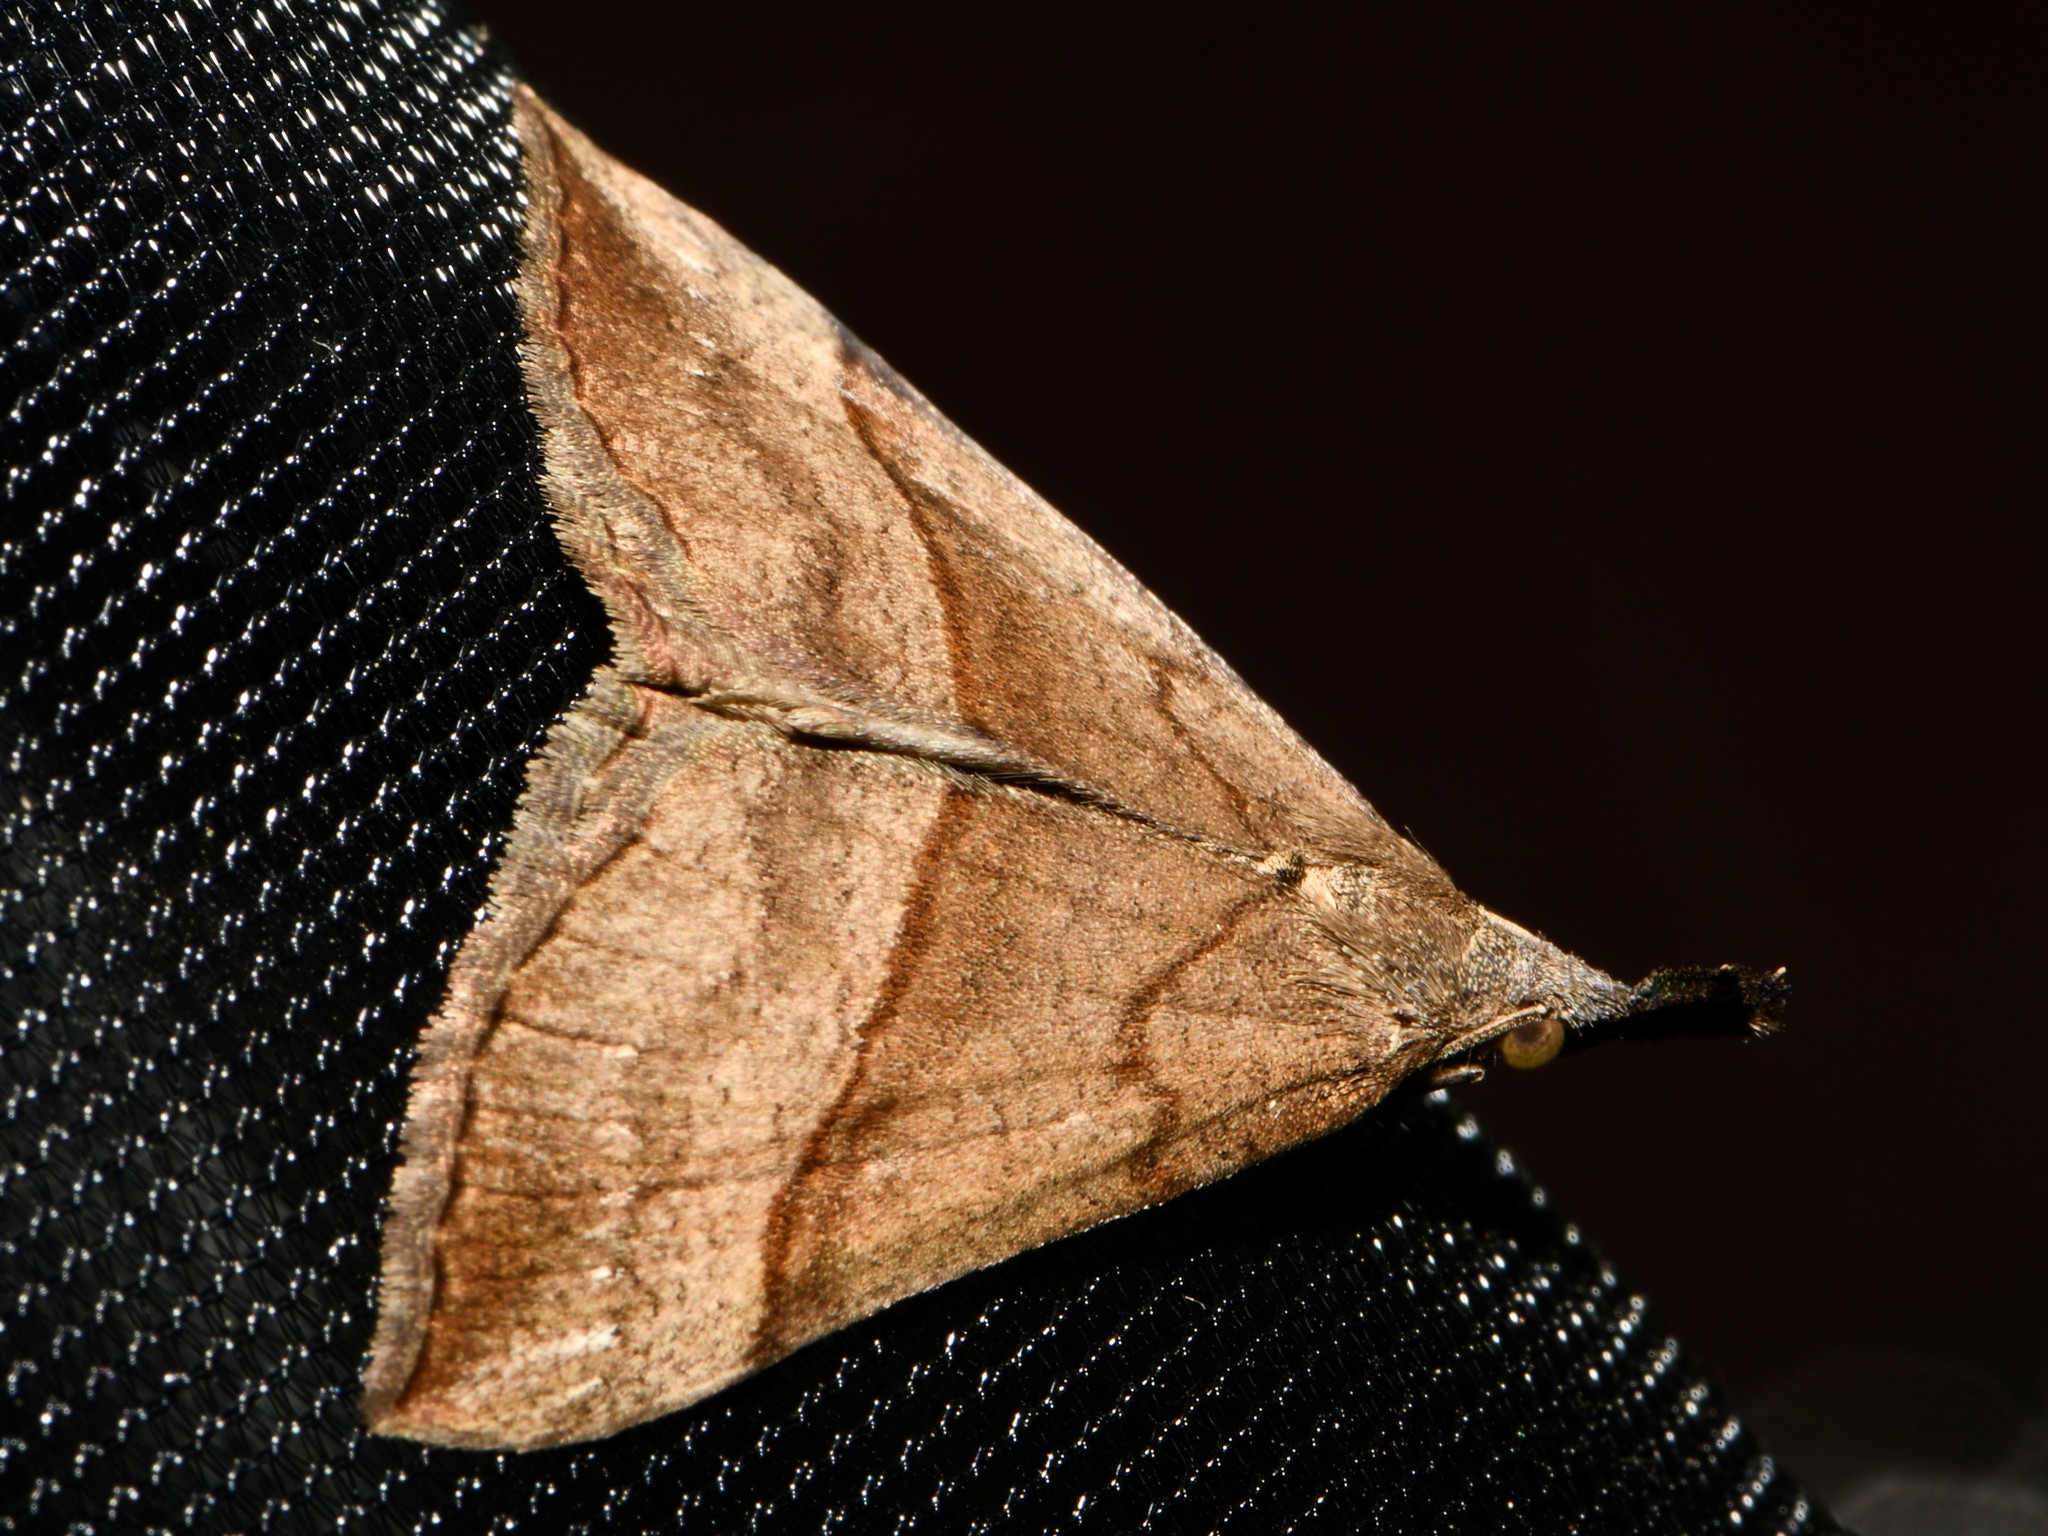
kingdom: Animalia
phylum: Arthropoda
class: Insecta
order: Lepidoptera
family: Erebidae
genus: Hypena
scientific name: Hypena proboscidalis
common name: Snout
